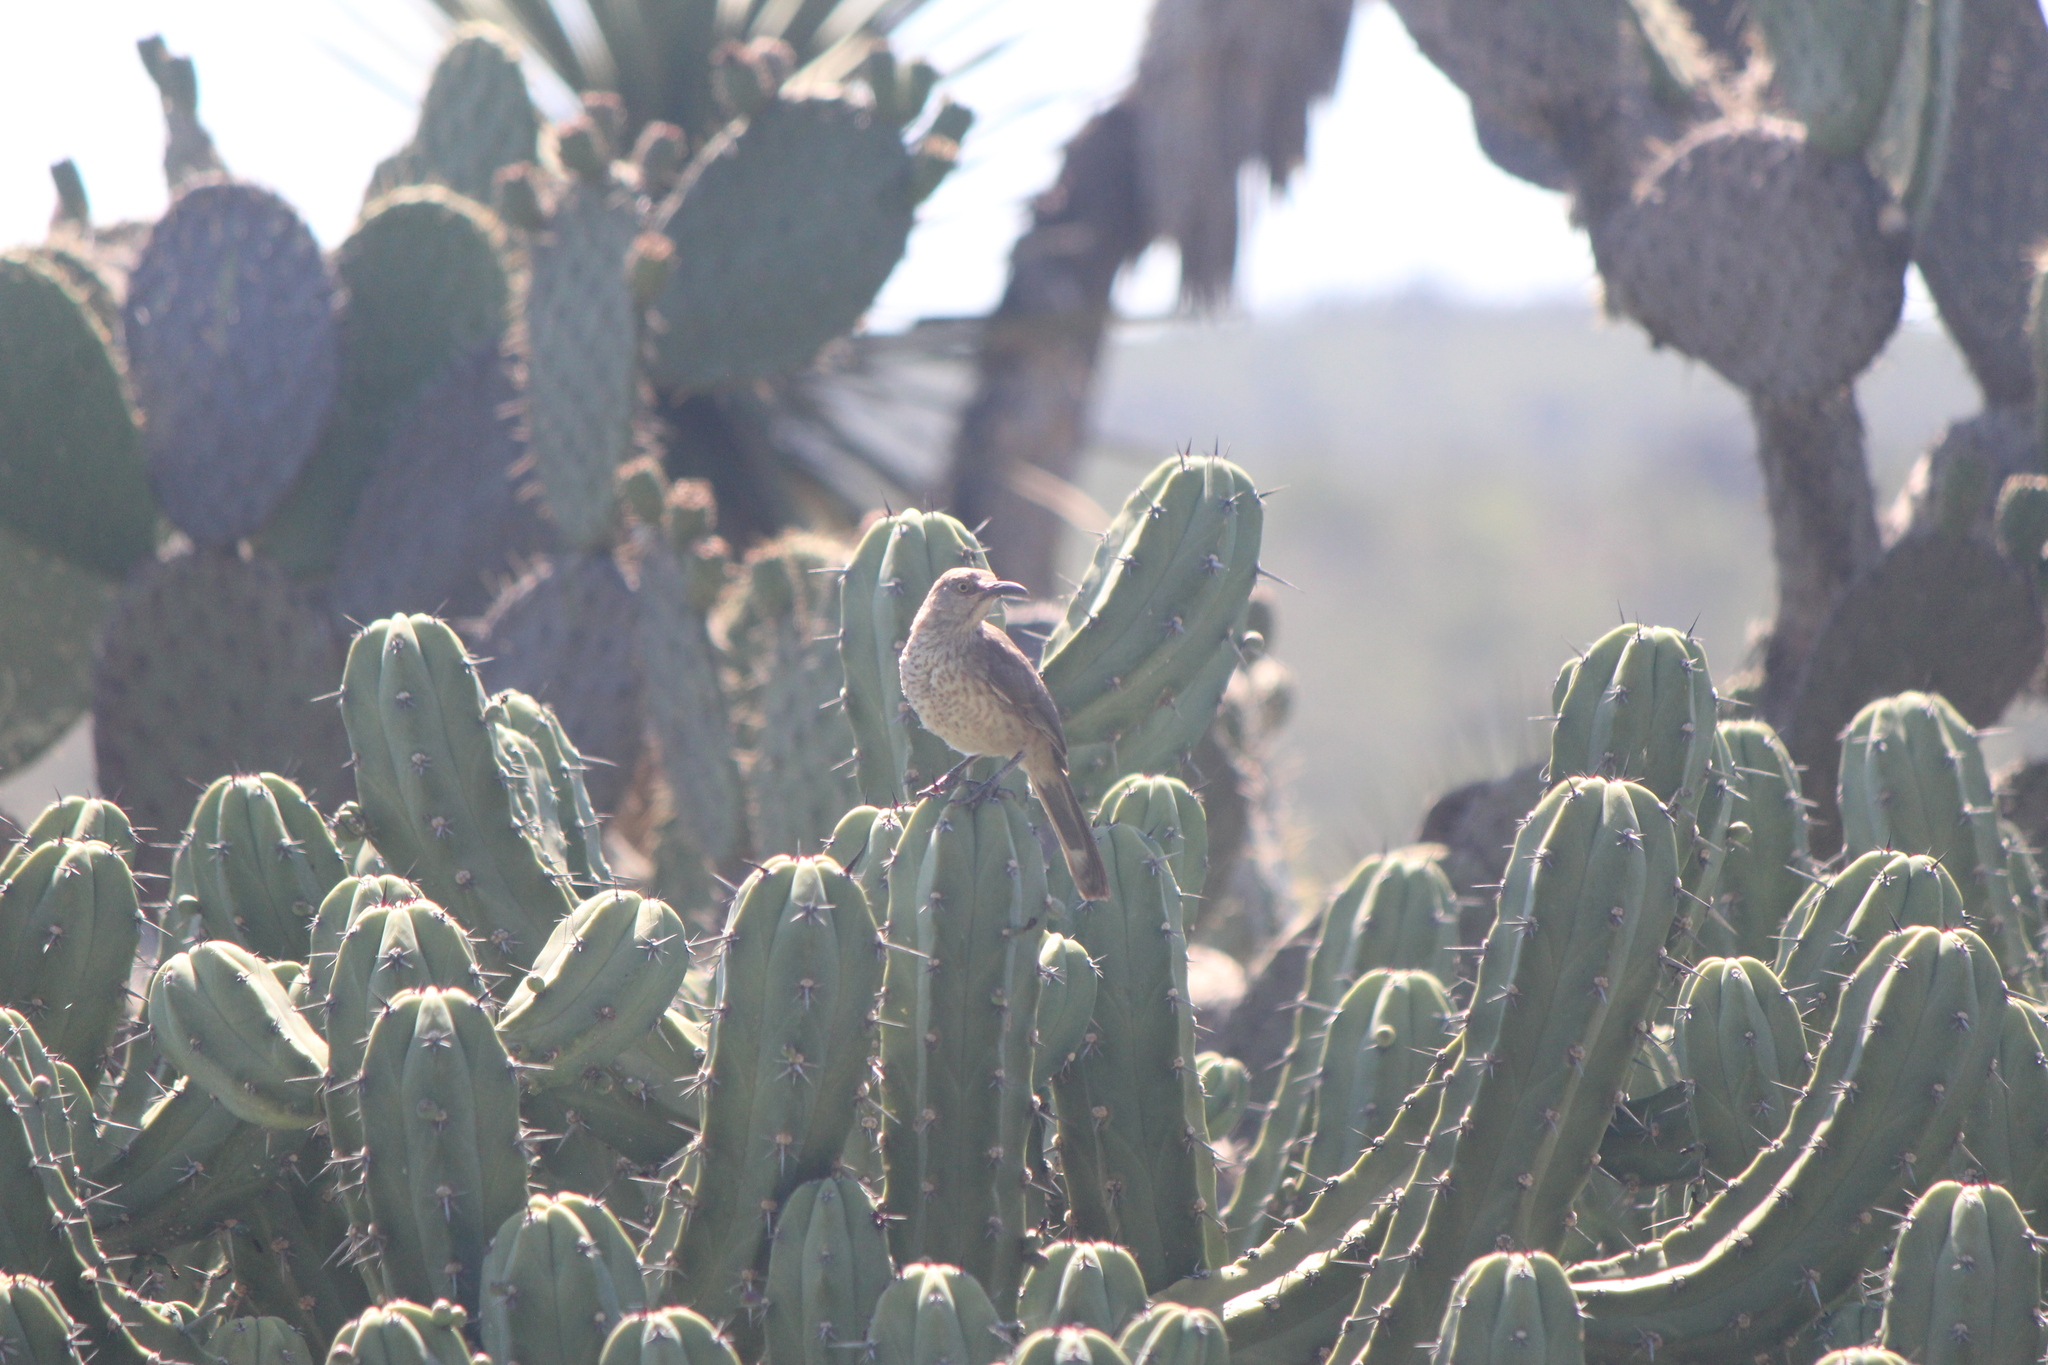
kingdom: Animalia
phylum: Chordata
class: Aves
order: Passeriformes
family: Mimidae
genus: Toxostoma
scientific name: Toxostoma curvirostre
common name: Curve-billed thrasher
